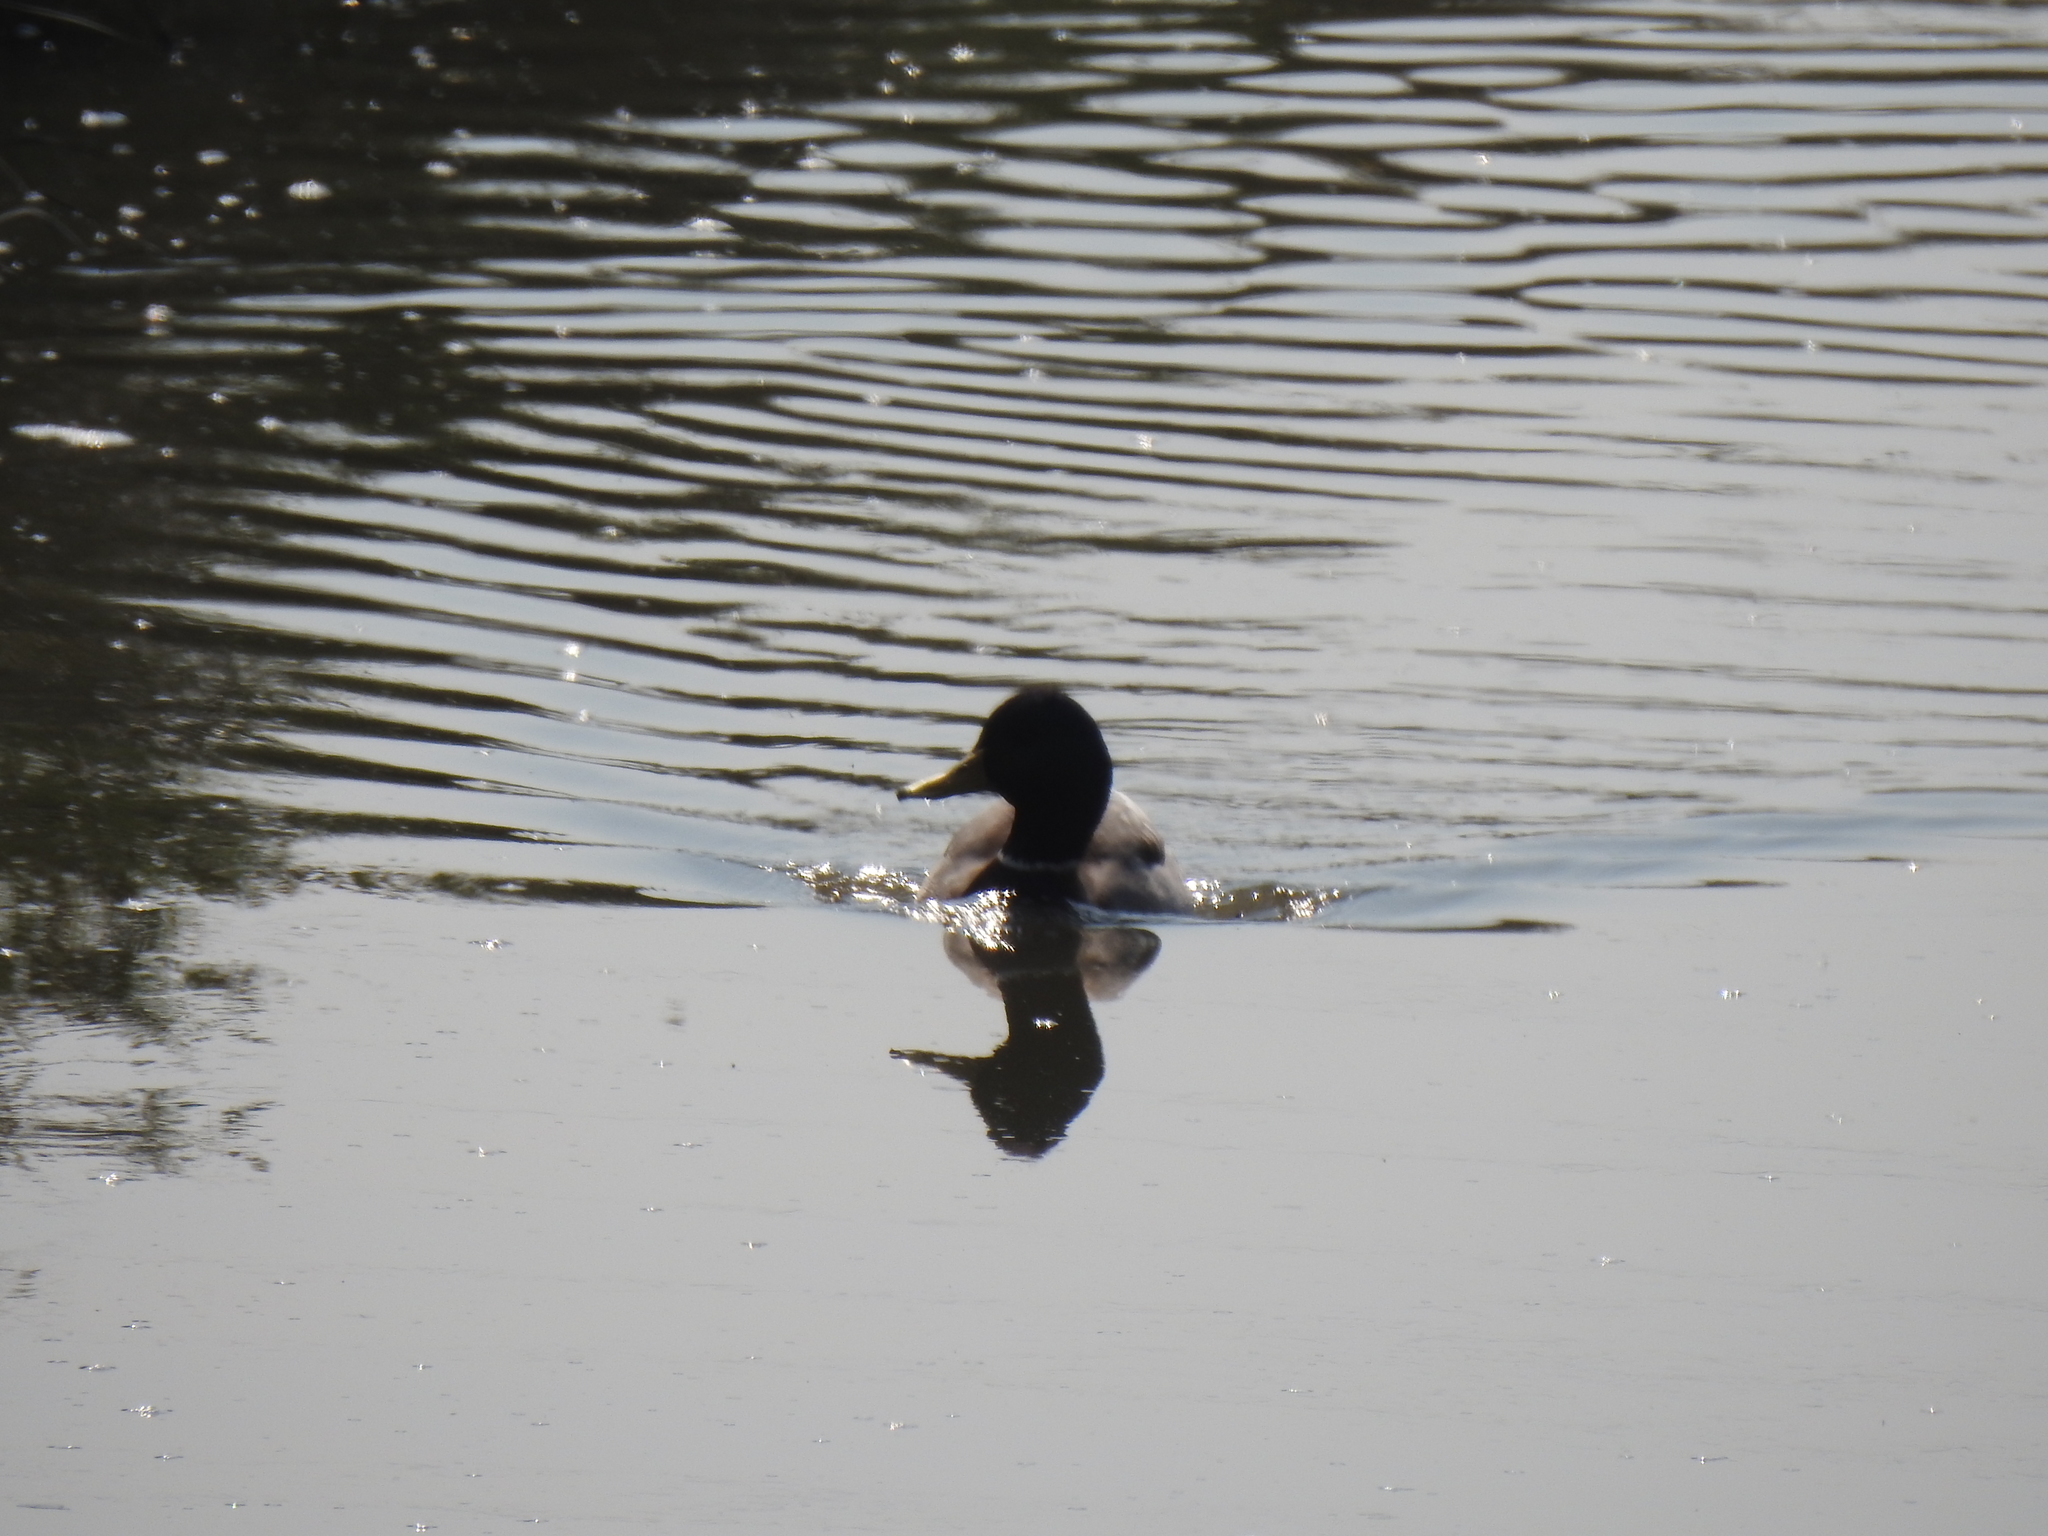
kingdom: Animalia
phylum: Chordata
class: Aves
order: Anseriformes
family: Anatidae
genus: Anas
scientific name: Anas platyrhynchos
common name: Mallard
